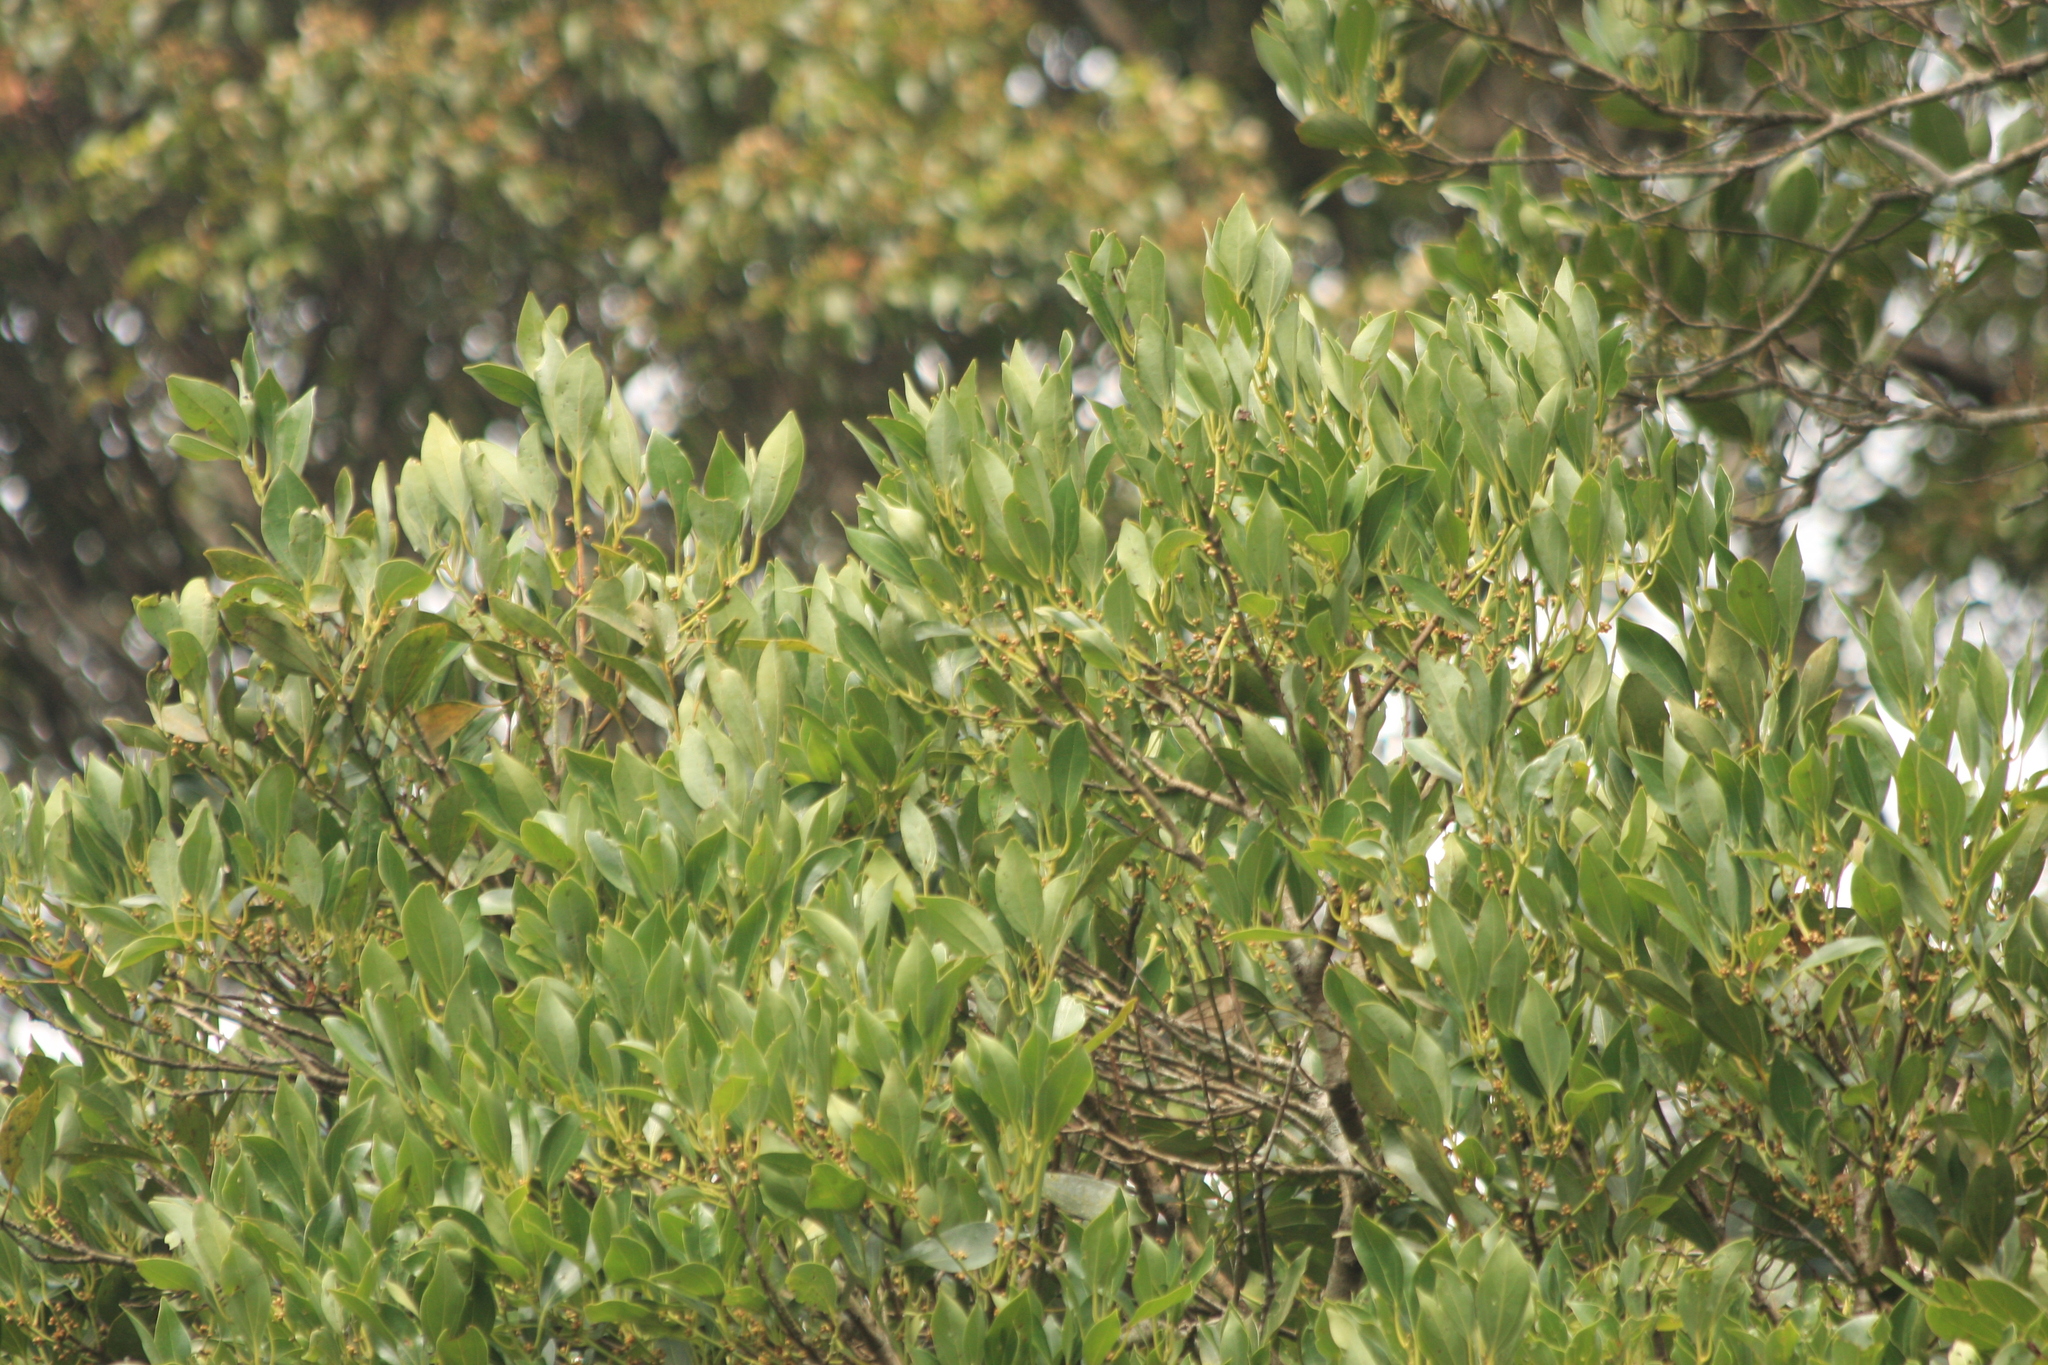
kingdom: Plantae
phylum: Tracheophyta
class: Magnoliopsida
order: Laurales
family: Lauraceae
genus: Neolitsea
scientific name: Neolitsea foliosa
